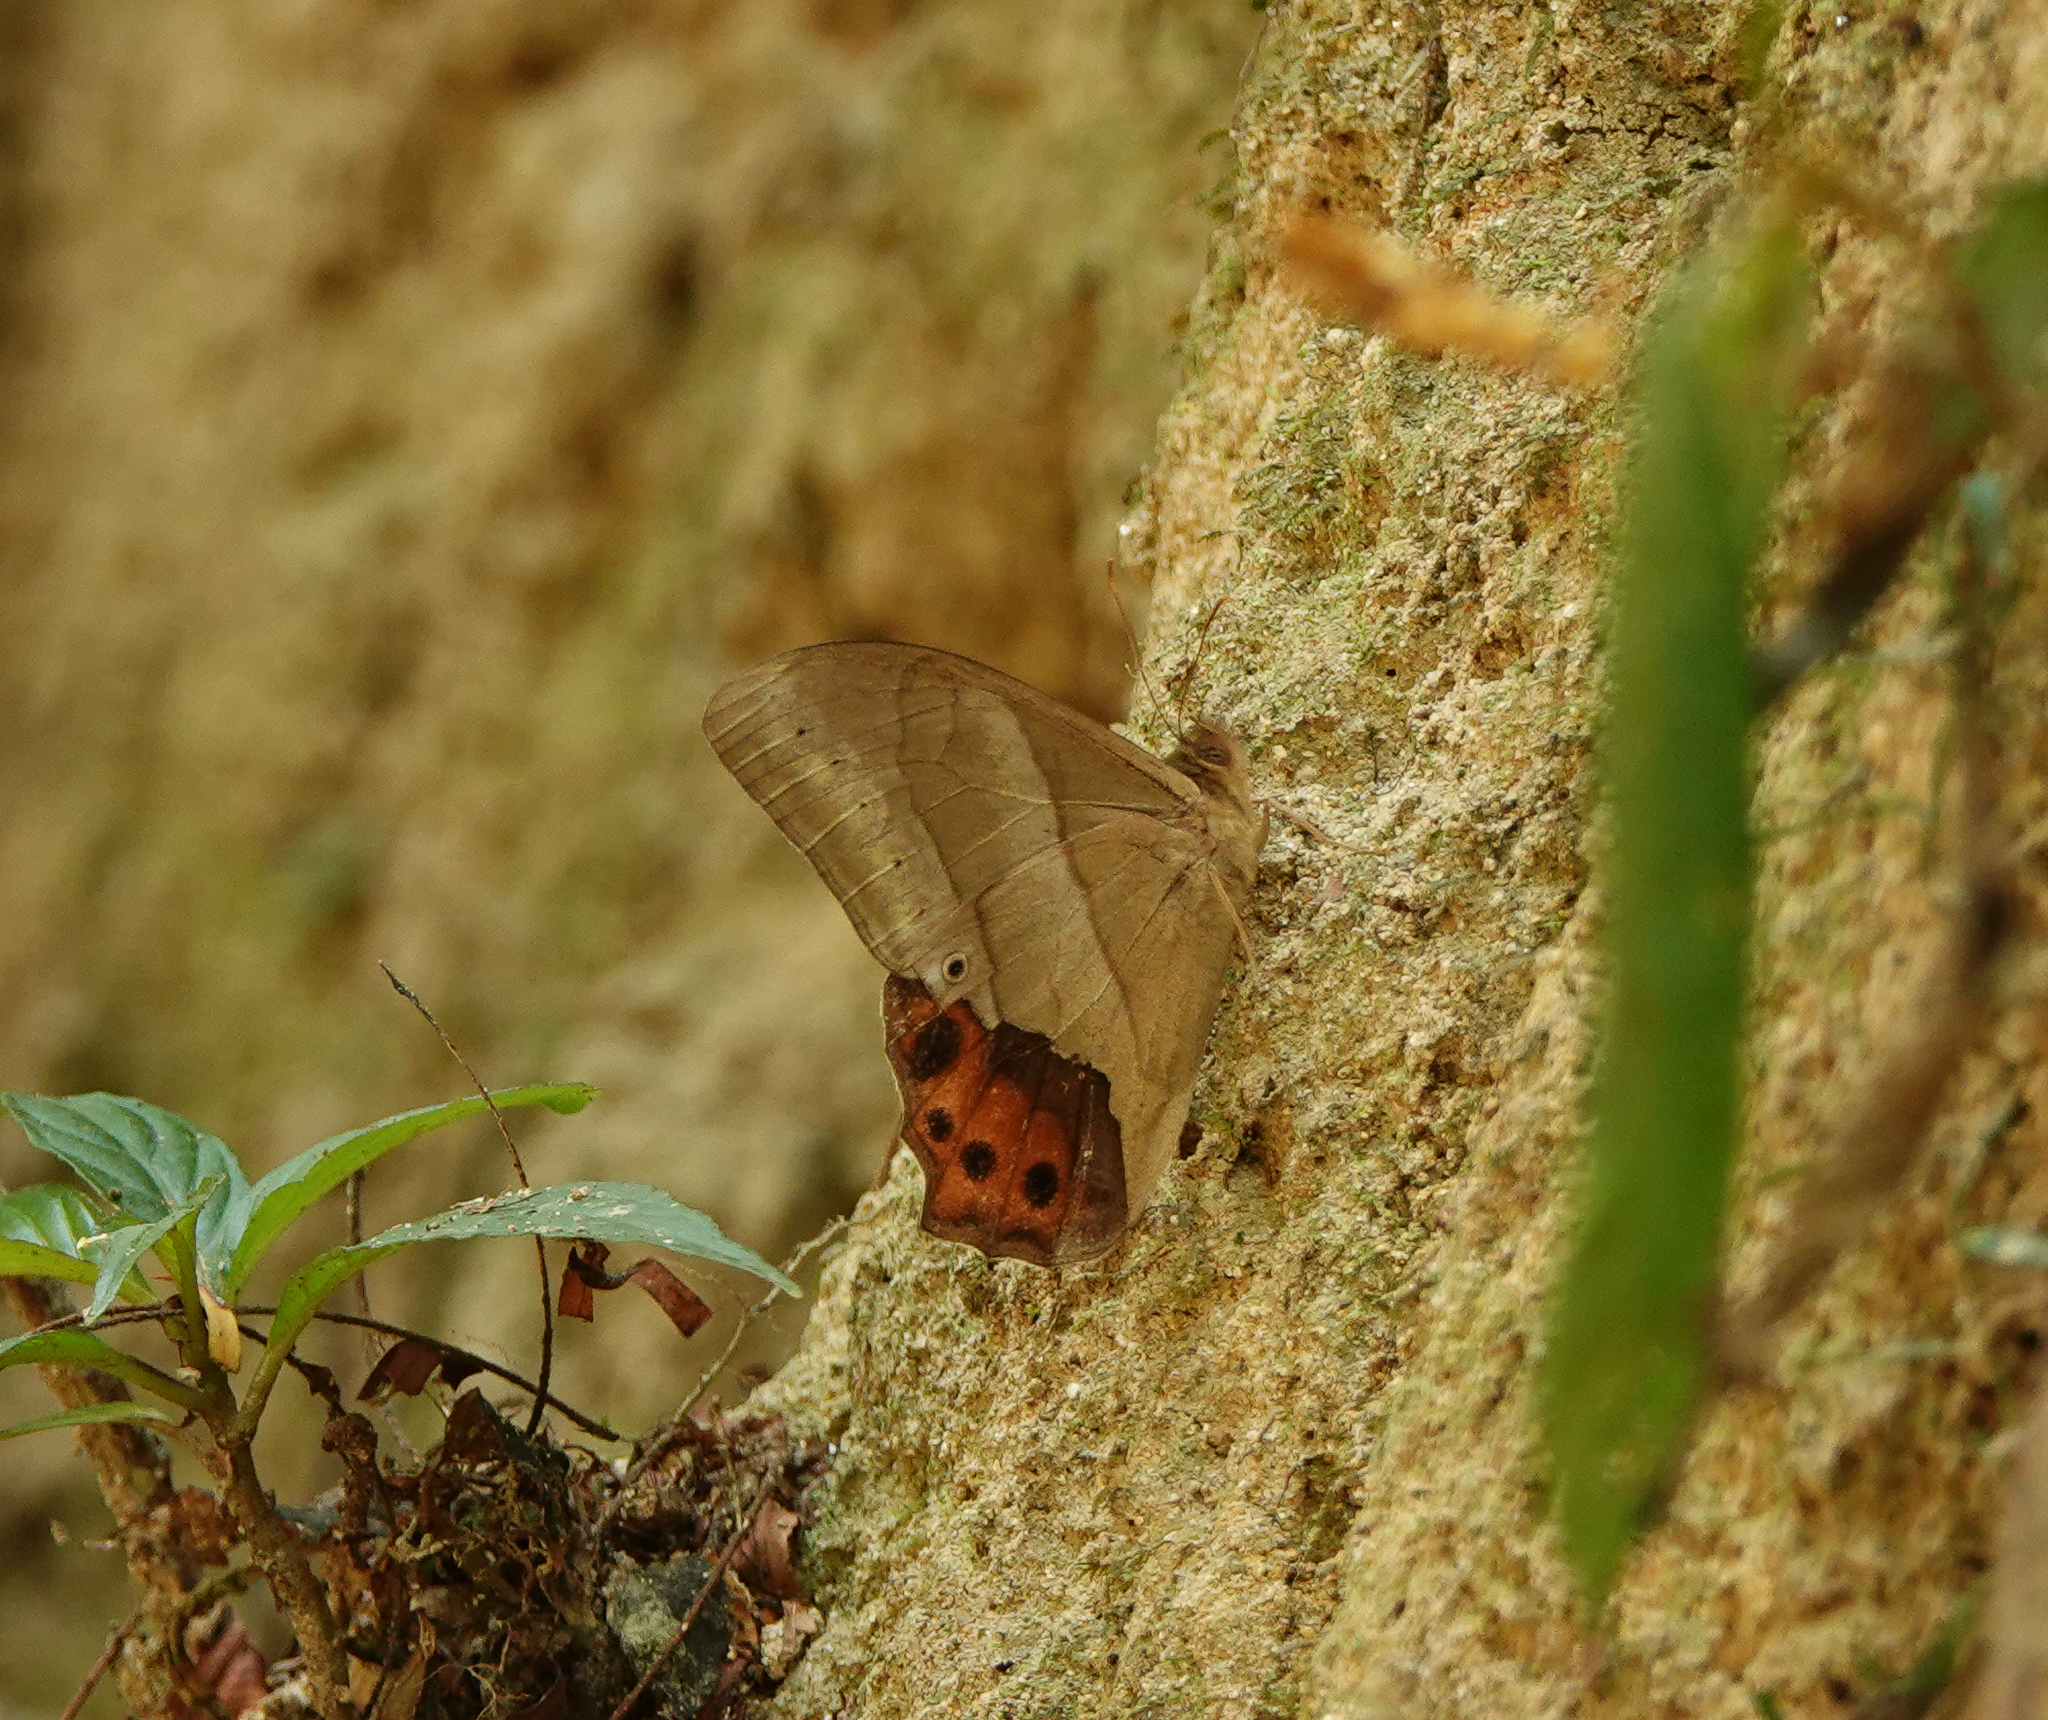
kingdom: Animalia
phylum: Arthropoda
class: Insecta
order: Lepidoptera
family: Nymphalidae
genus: Lethe
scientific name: Lethe mekara
